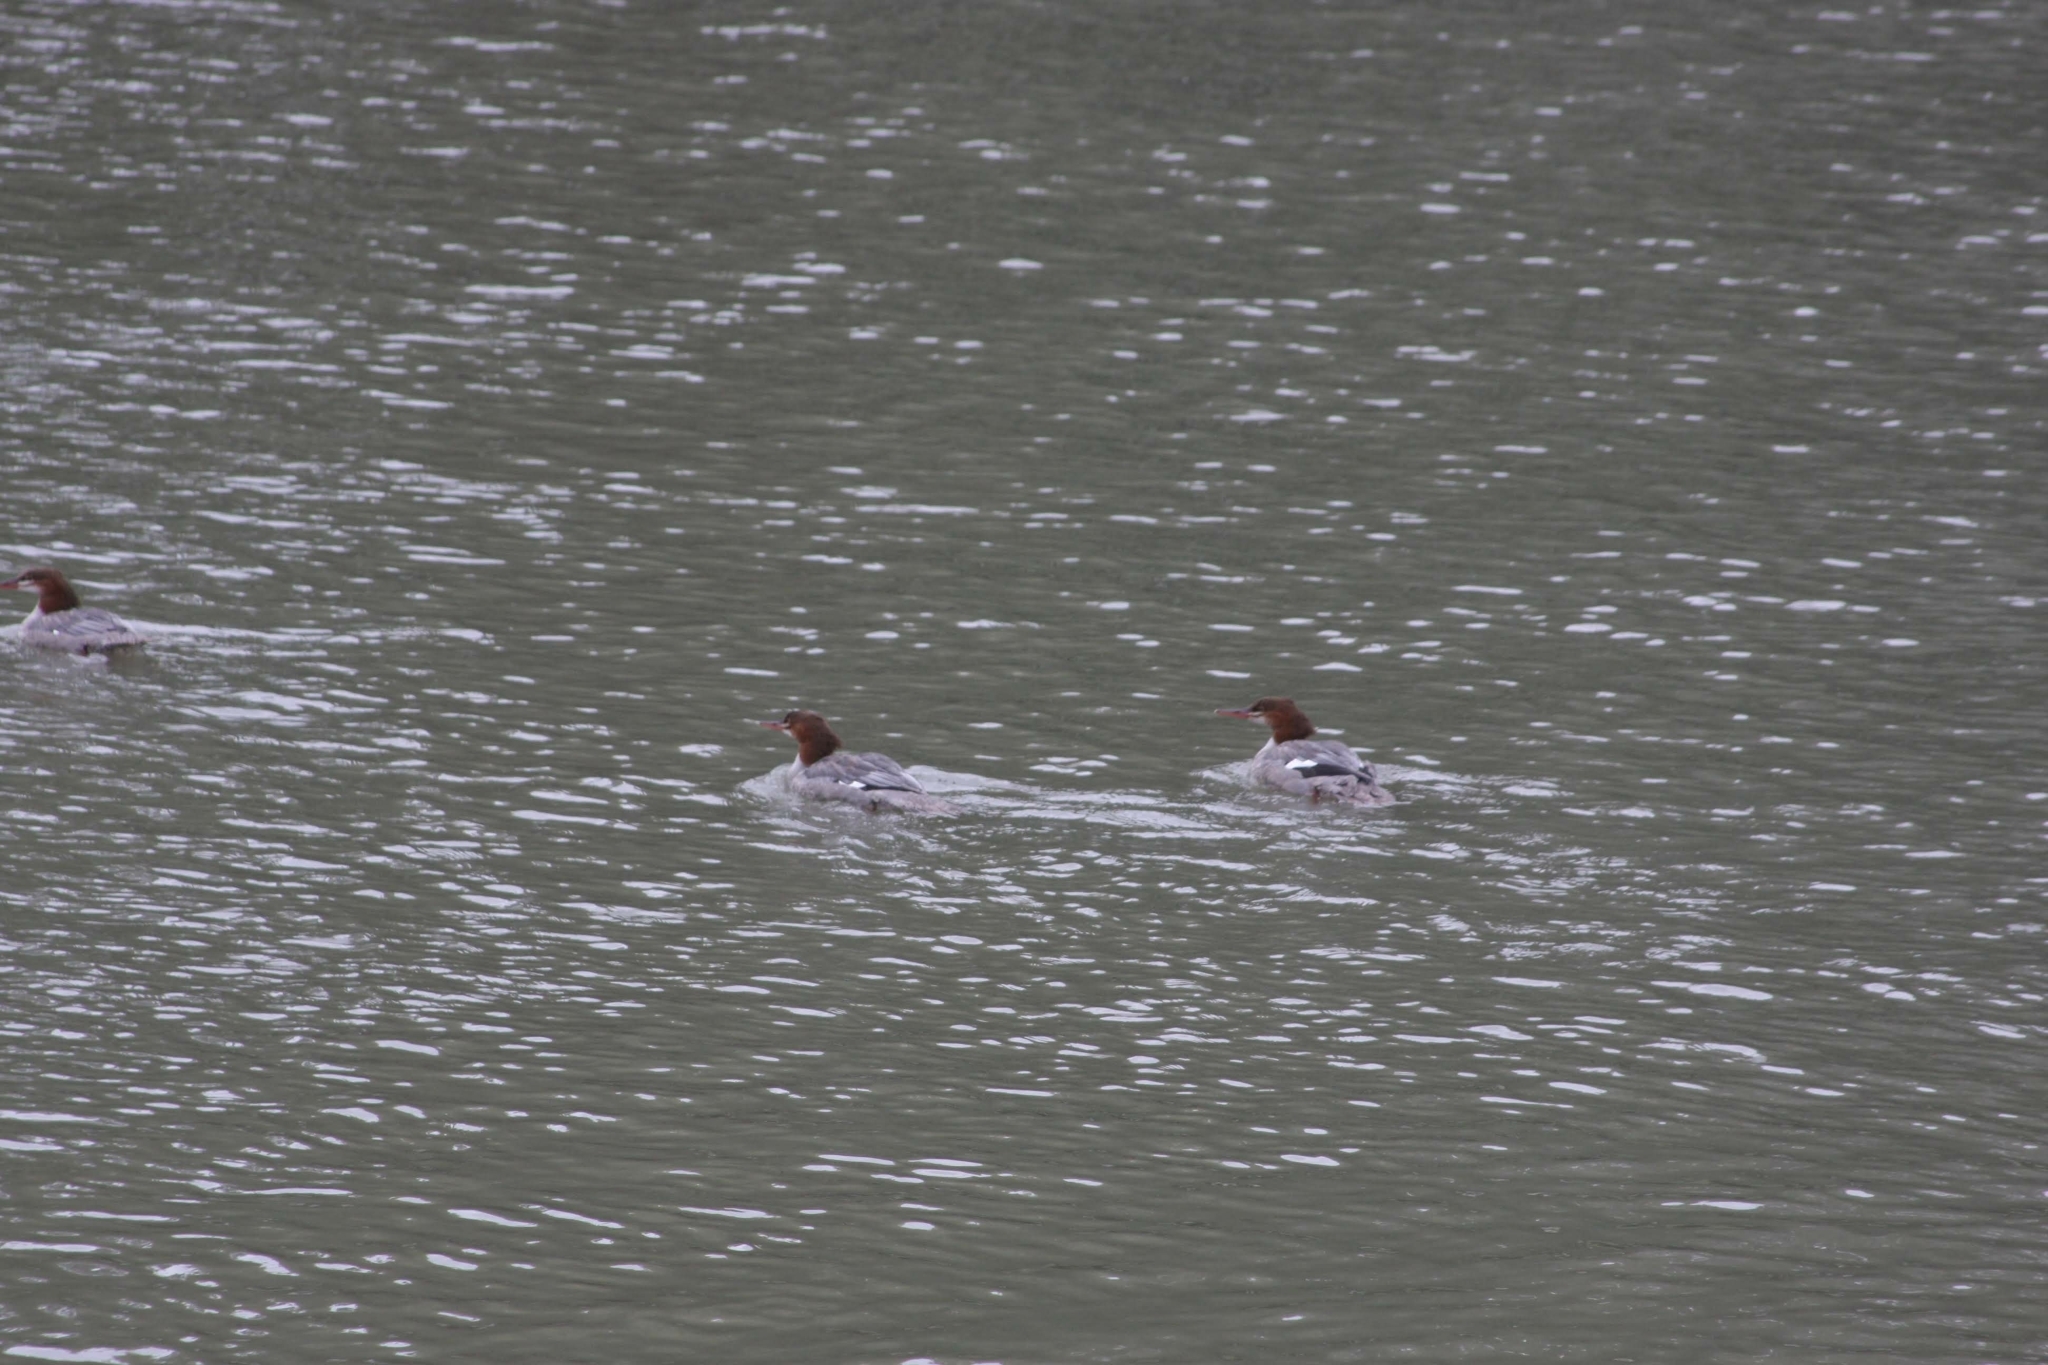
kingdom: Animalia
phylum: Chordata
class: Aves
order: Anseriformes
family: Anatidae
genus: Mergus
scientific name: Mergus merganser
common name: Common merganser
